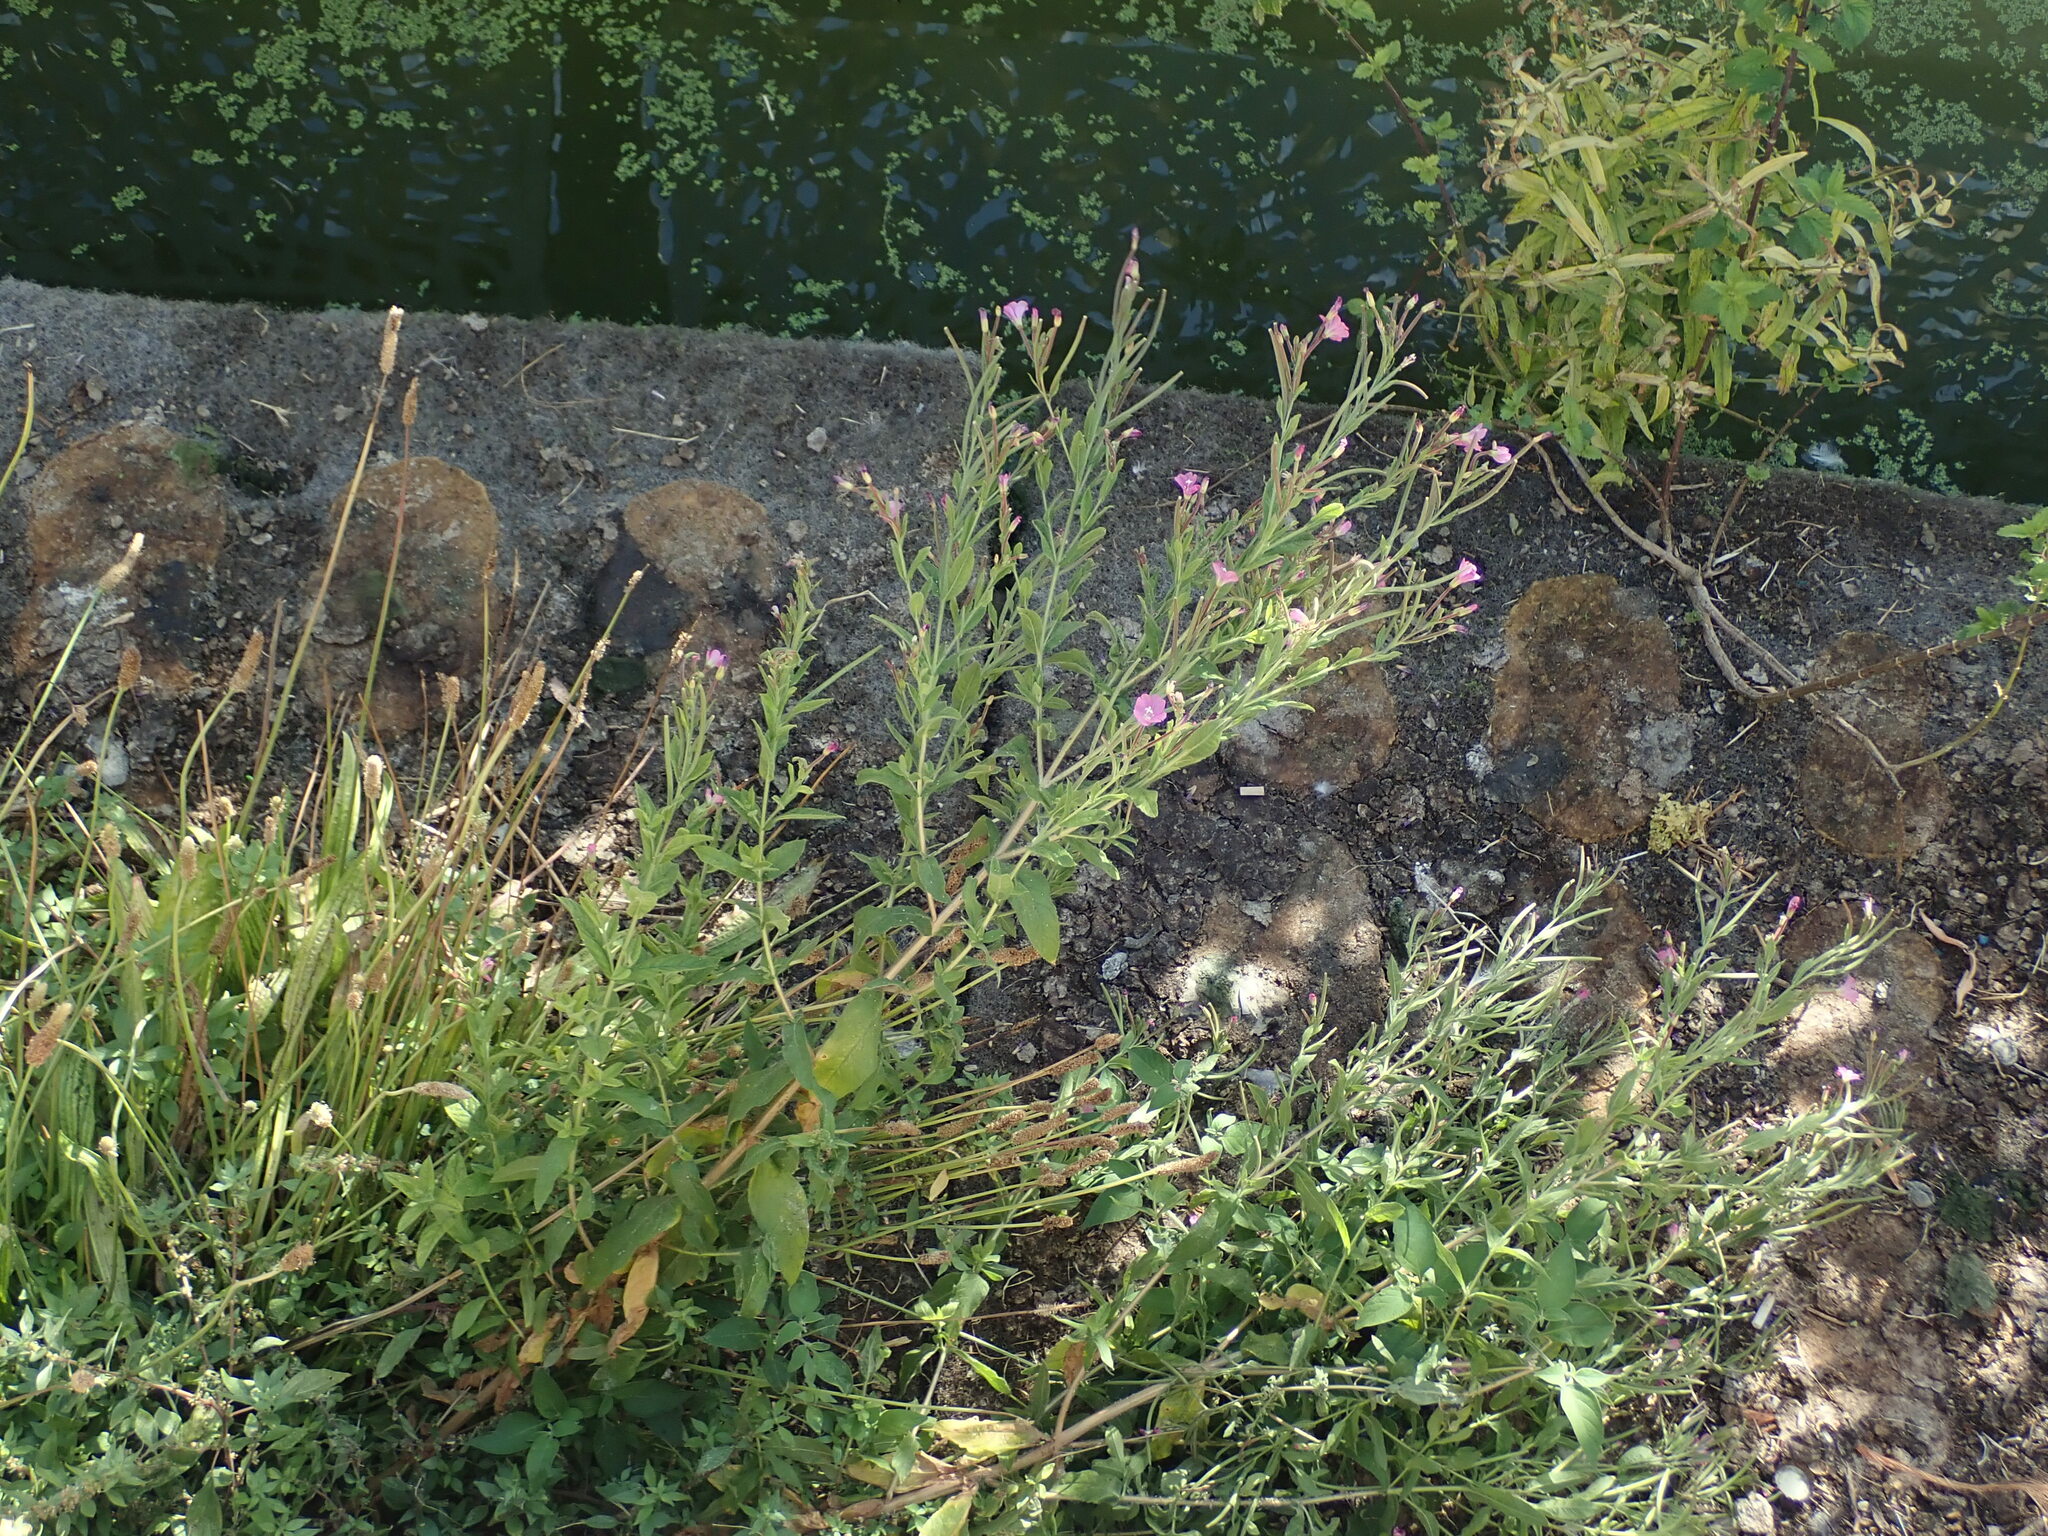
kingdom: Plantae
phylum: Tracheophyta
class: Magnoliopsida
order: Myrtales
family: Onagraceae
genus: Epilobium
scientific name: Epilobium hirsutum
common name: Great willowherb
